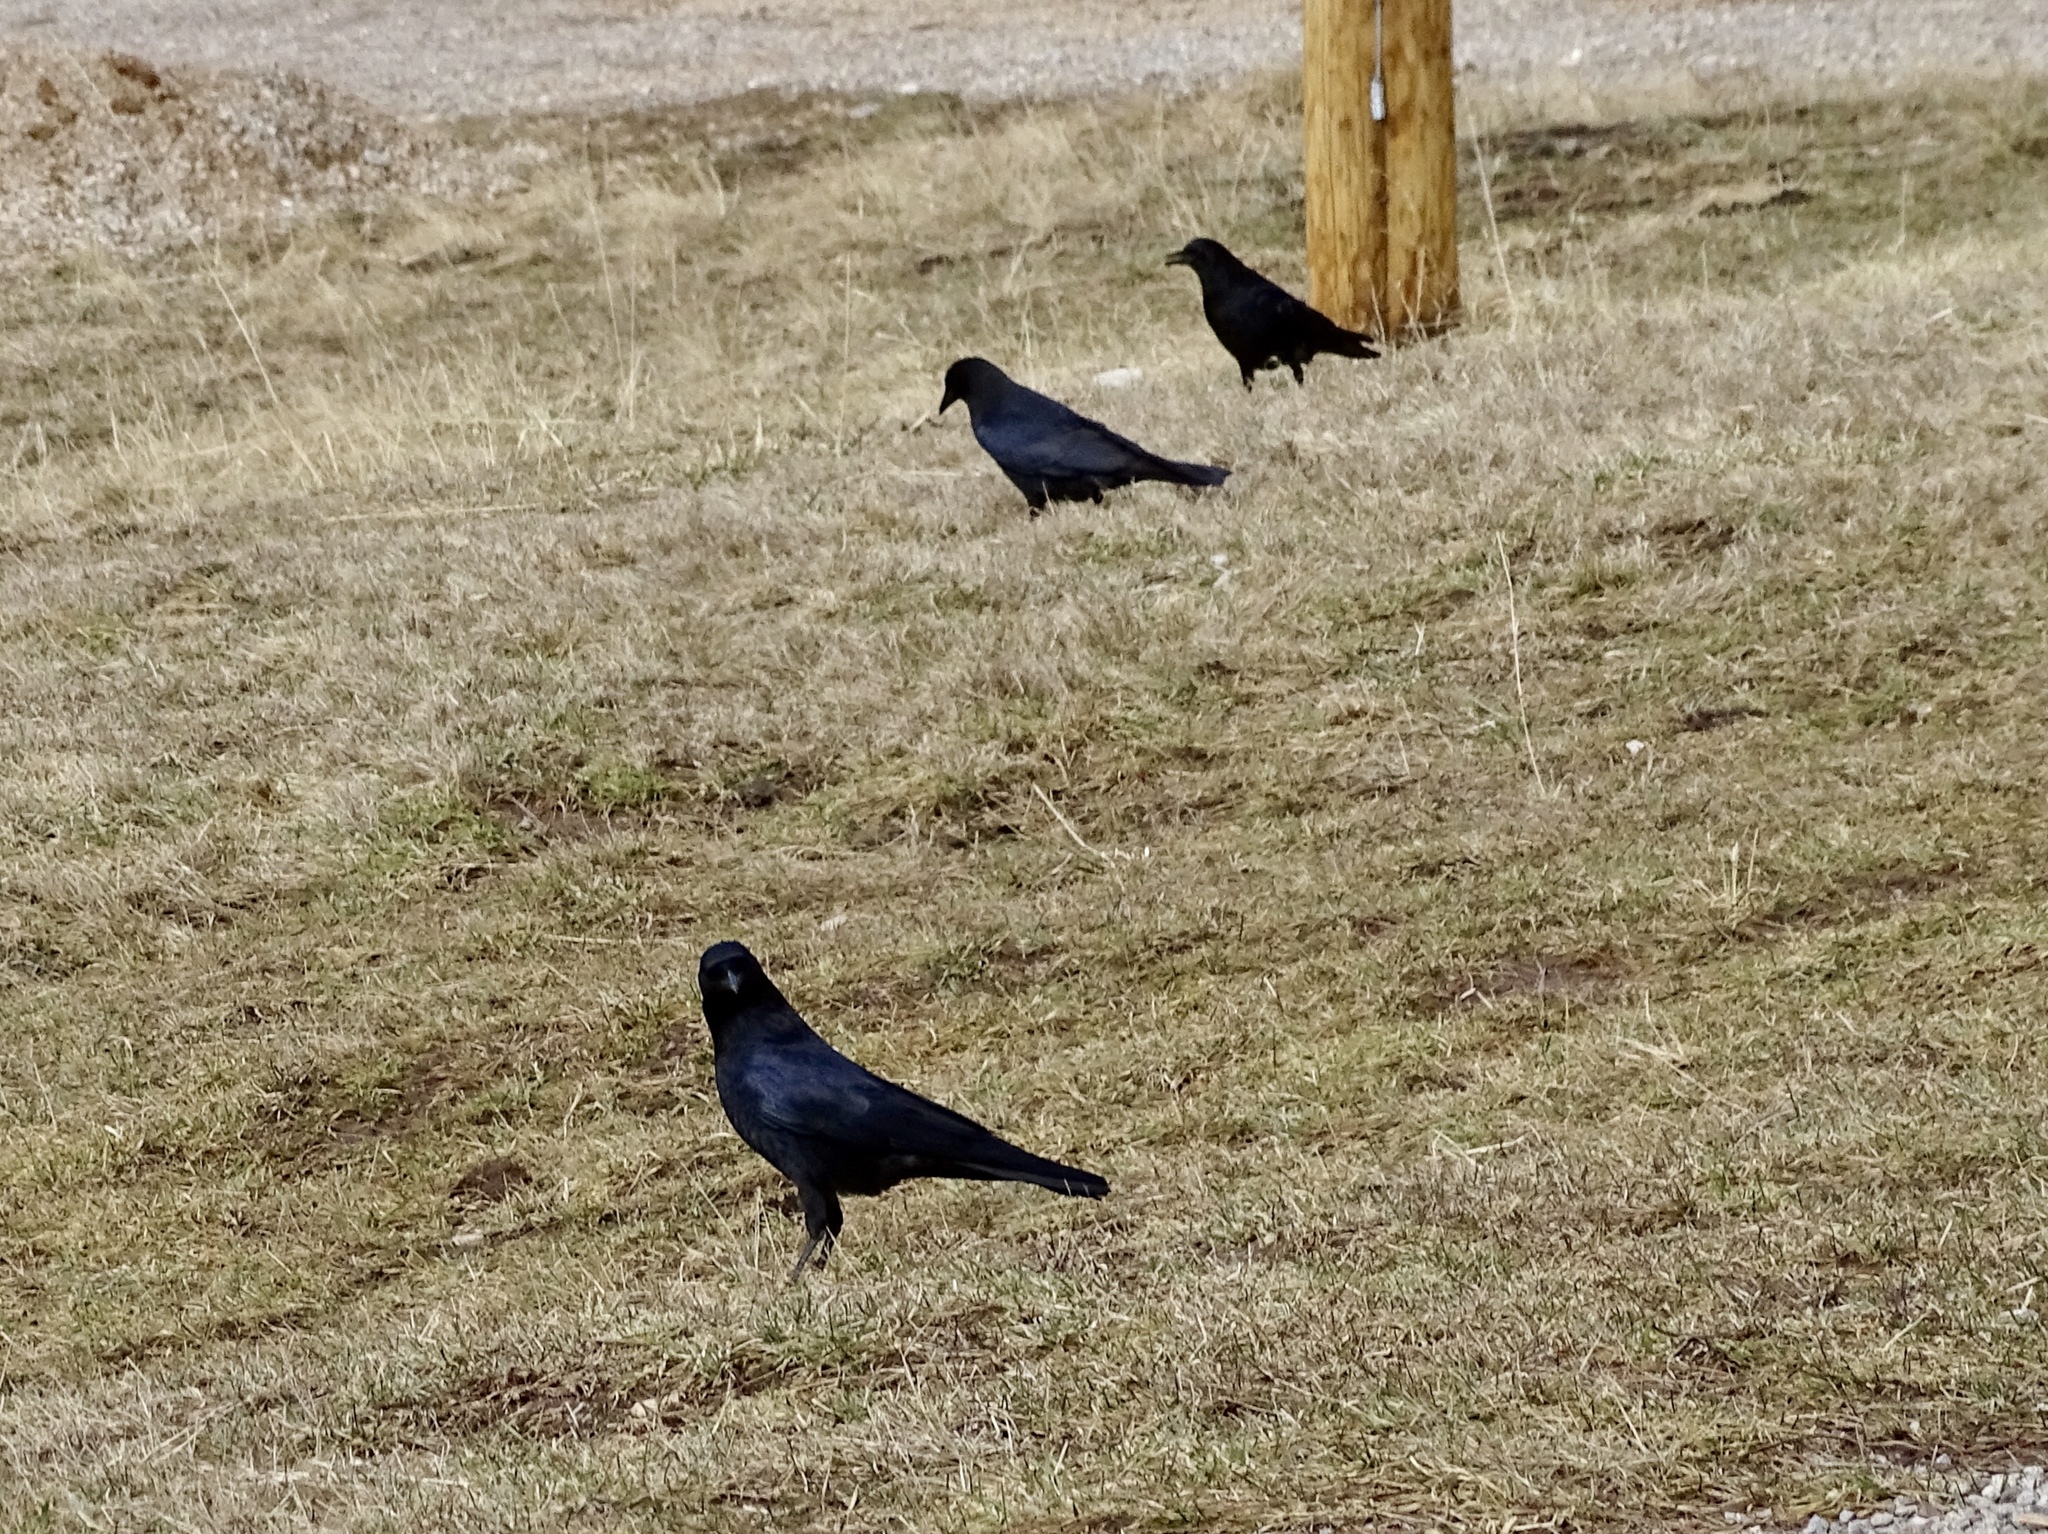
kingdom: Animalia
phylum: Chordata
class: Aves
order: Passeriformes
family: Corvidae
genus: Corvus
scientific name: Corvus brachyrhynchos
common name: American crow
